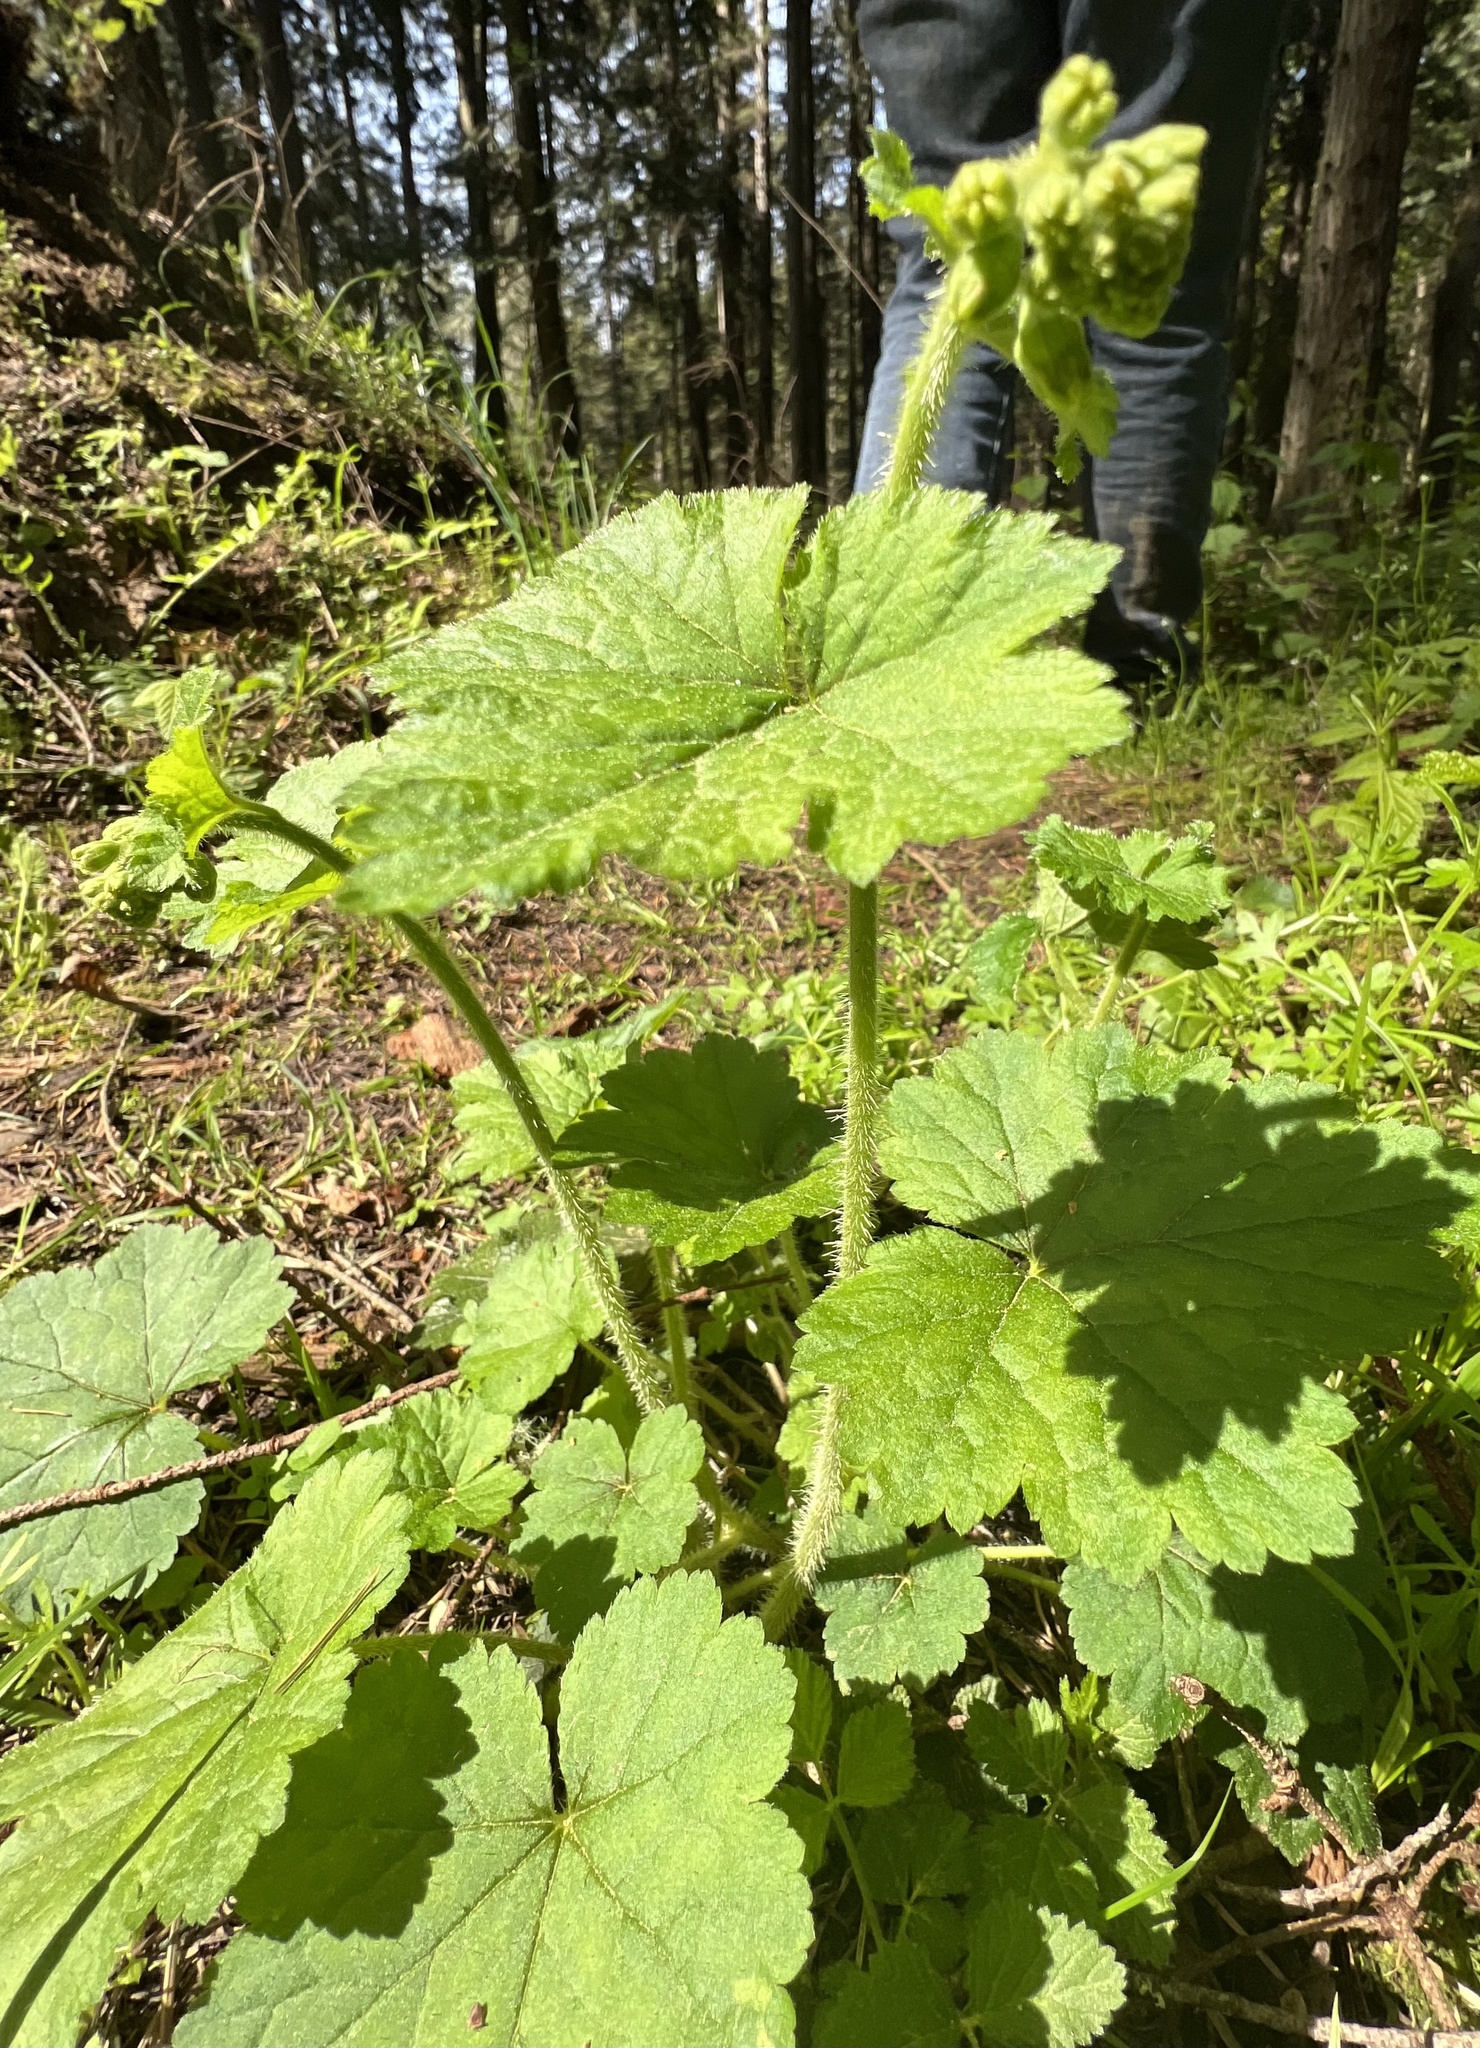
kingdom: Plantae
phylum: Tracheophyta
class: Magnoliopsida
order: Saxifragales
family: Saxifragaceae
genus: Tellima
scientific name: Tellima grandiflora
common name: Fringecups
